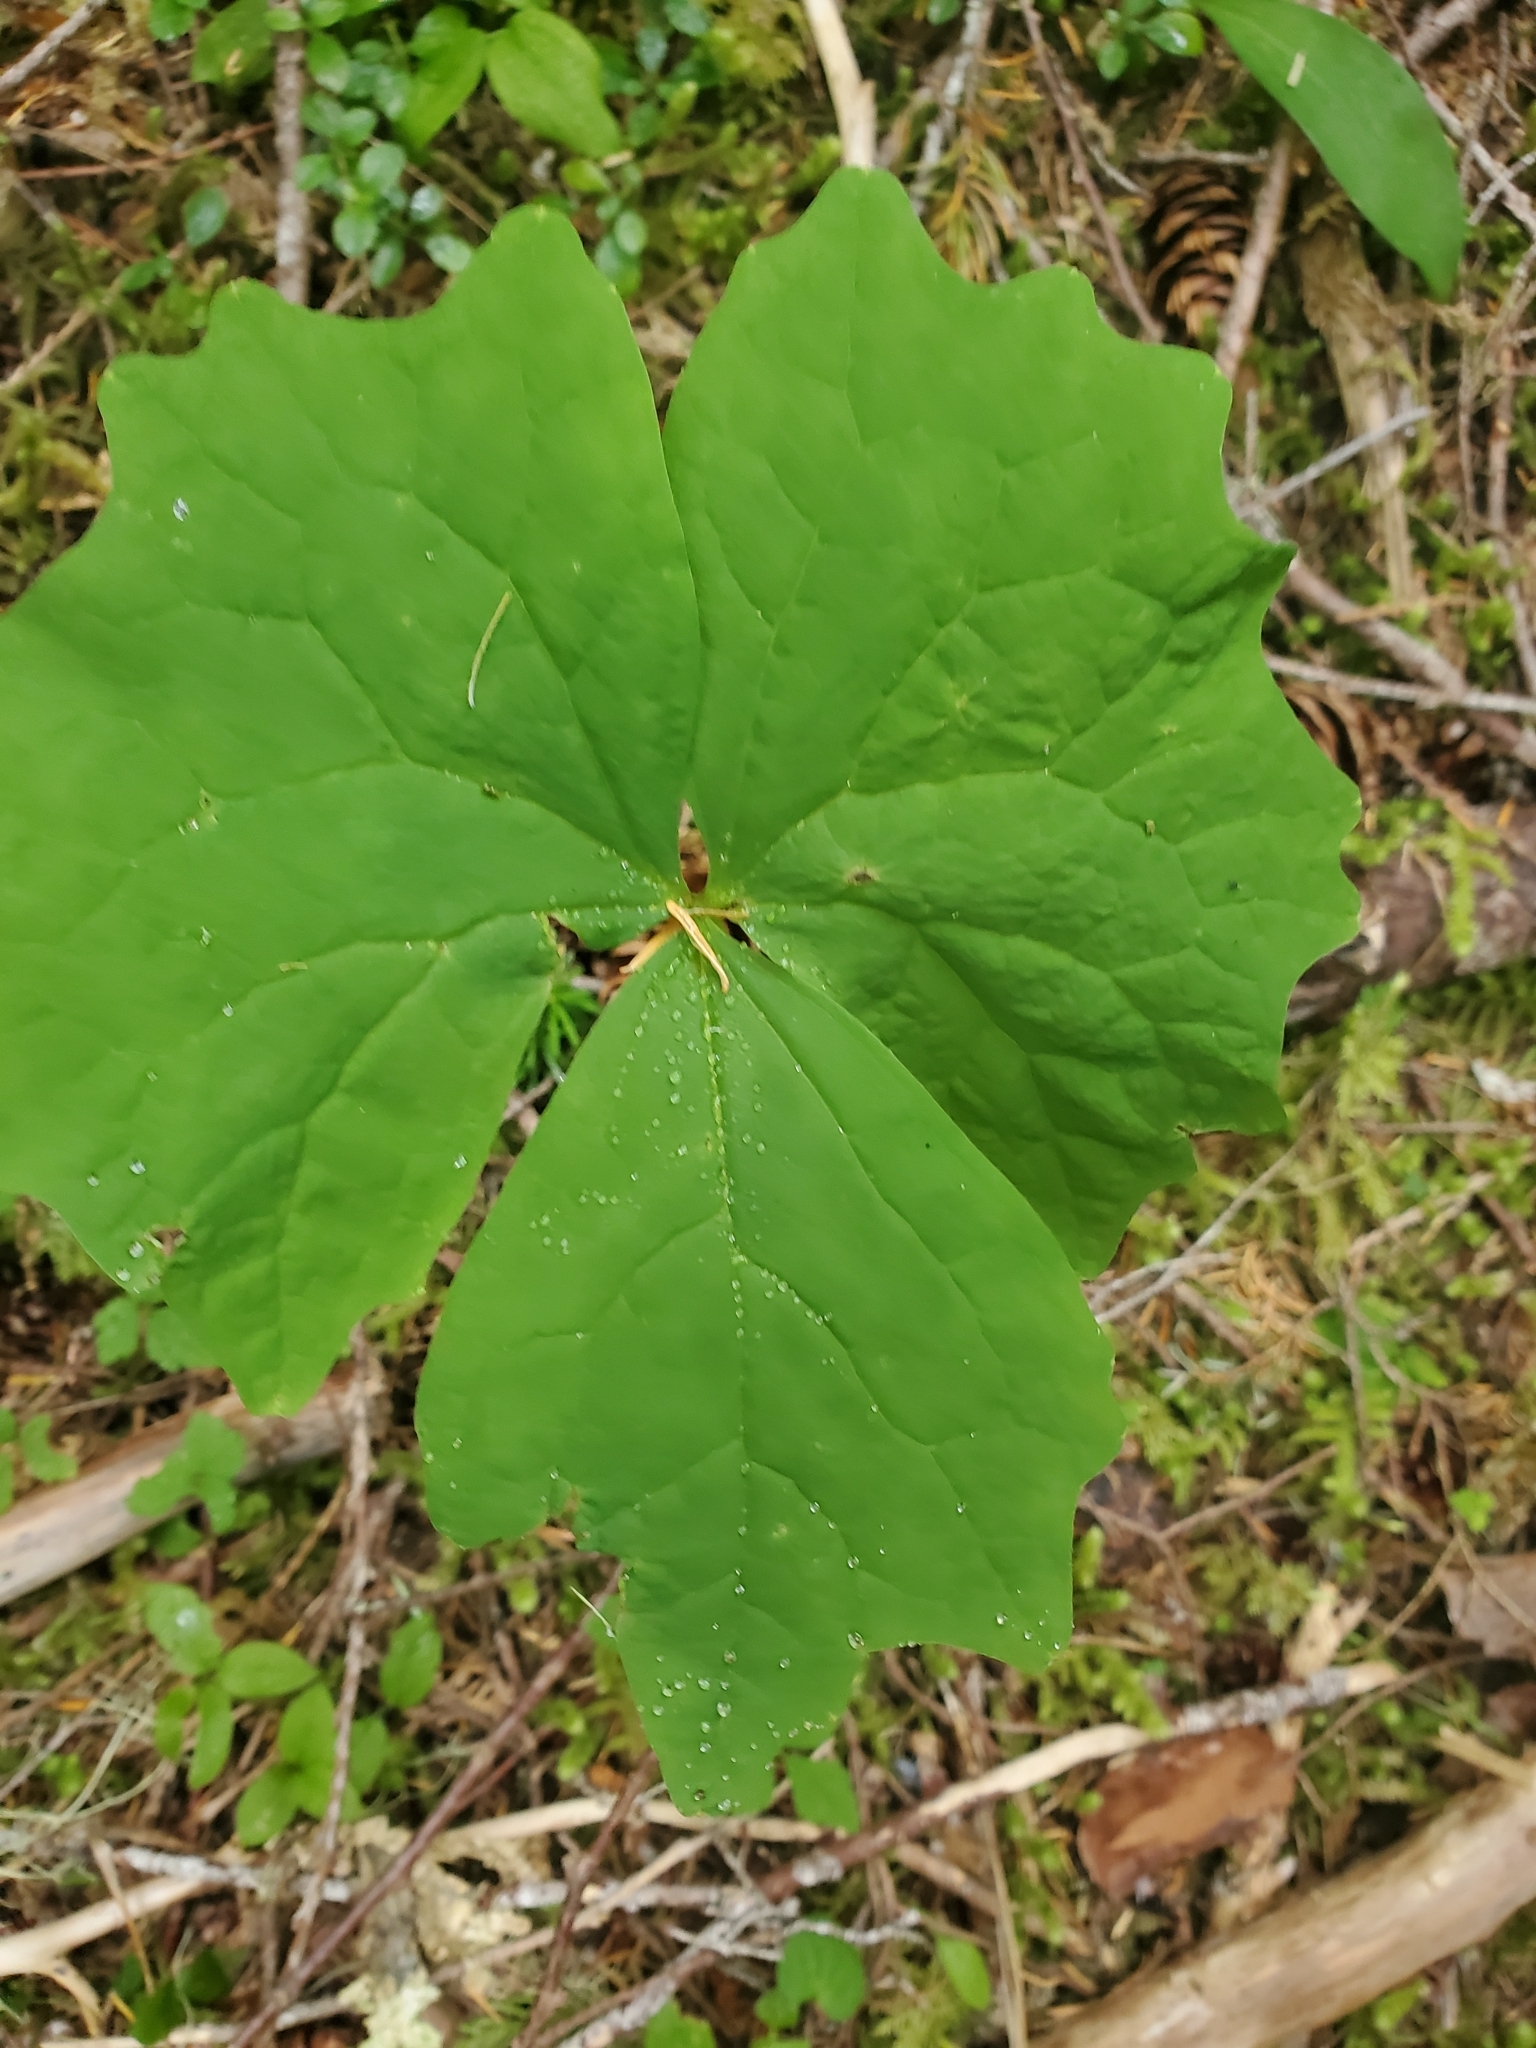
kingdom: Plantae
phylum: Tracheophyta
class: Magnoliopsida
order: Ranunculales
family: Berberidaceae
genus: Achlys
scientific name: Achlys triphylla
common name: Vanilla-leaf
